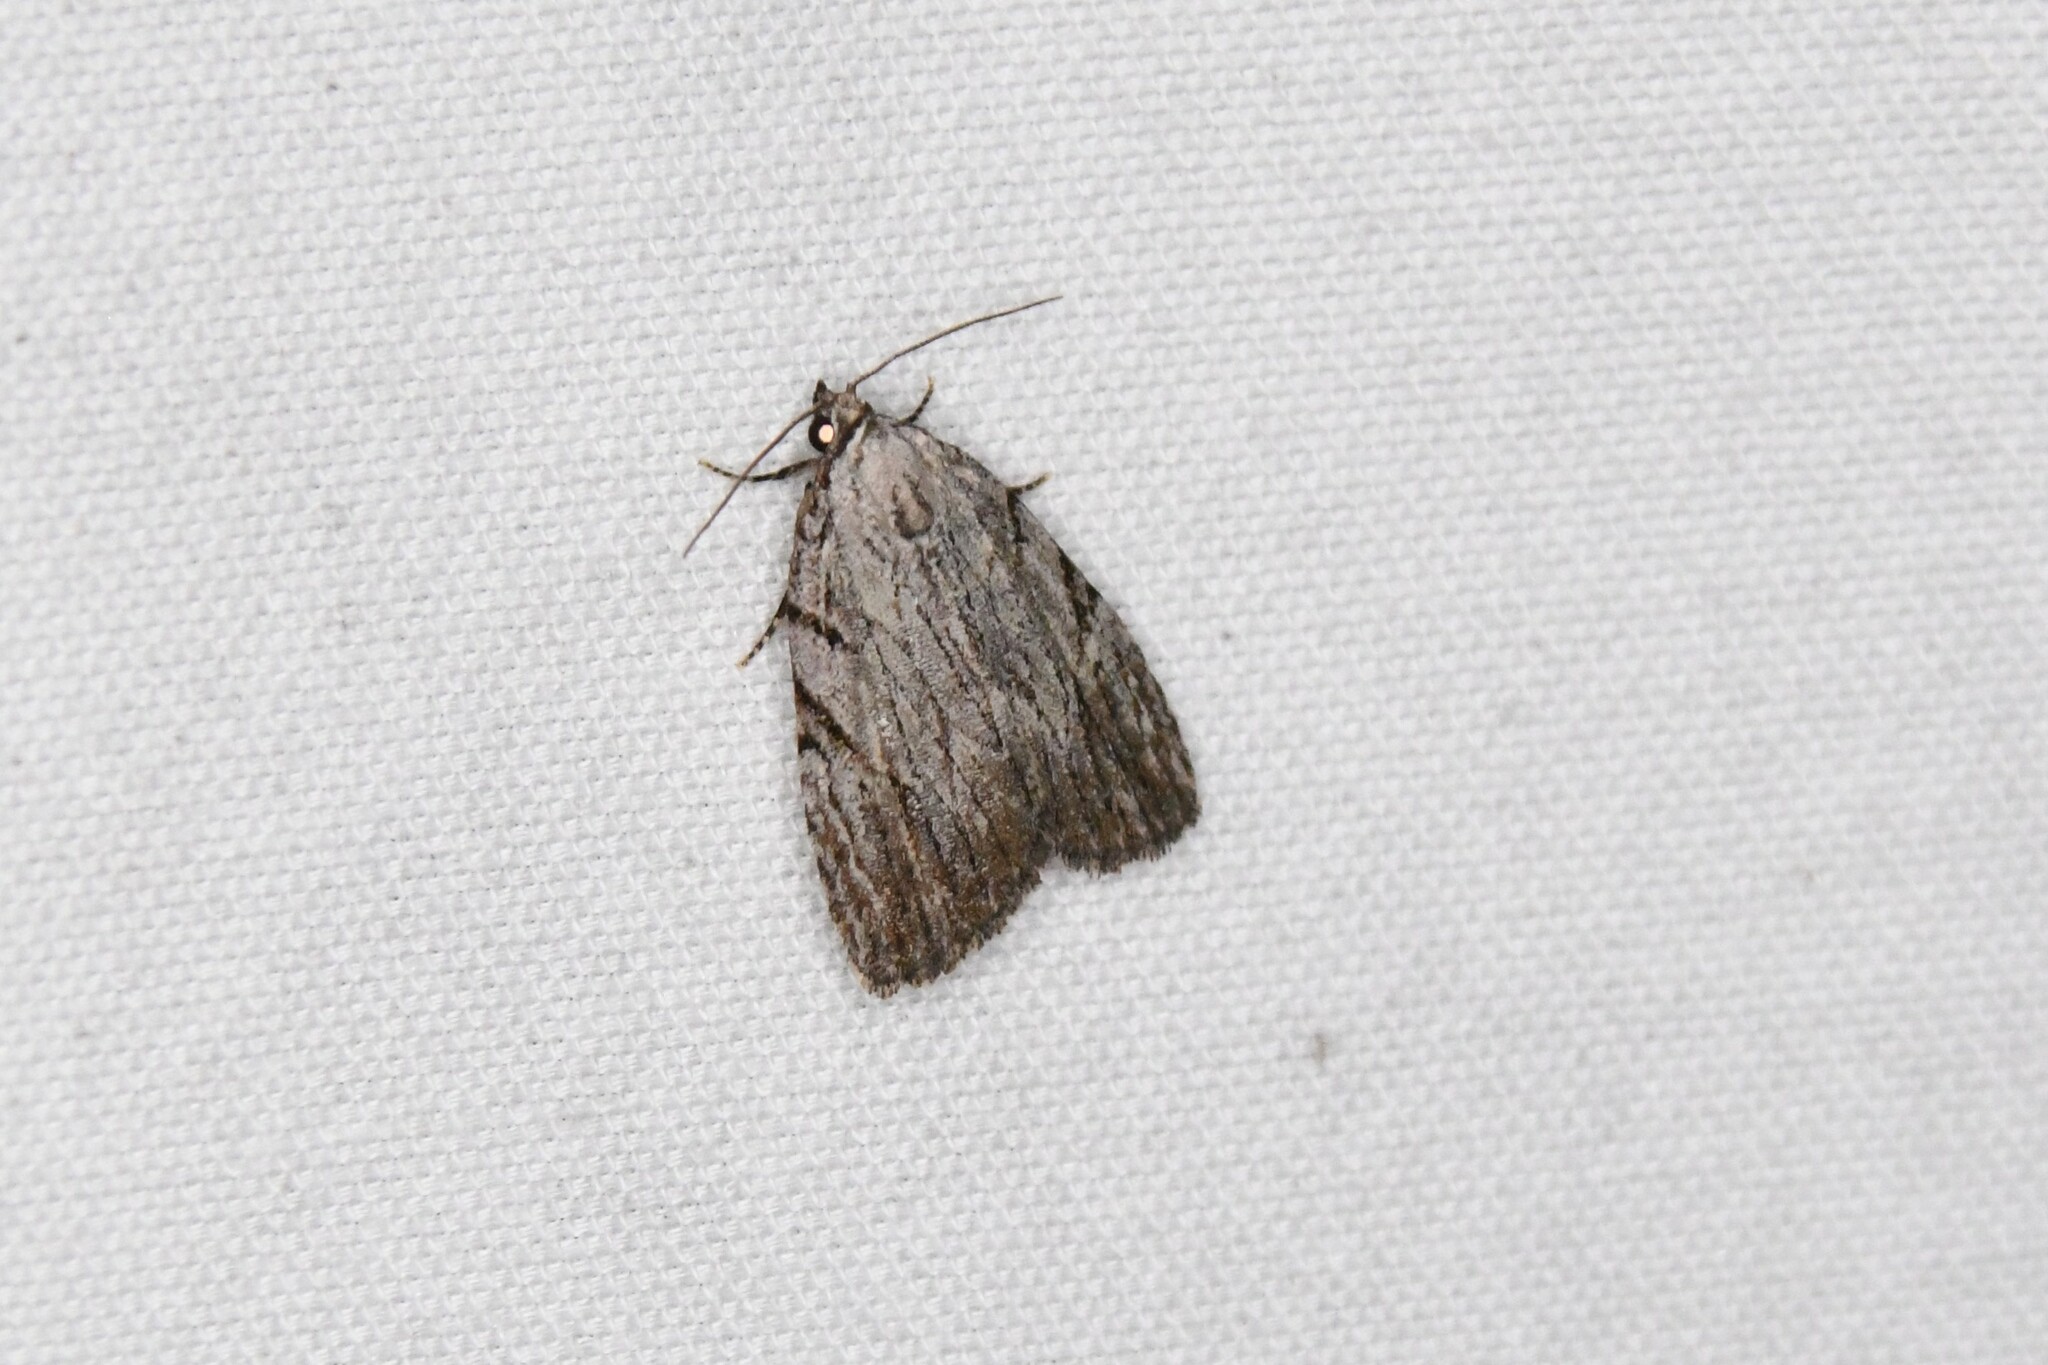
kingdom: Animalia
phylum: Arthropoda
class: Insecta
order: Lepidoptera
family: Noctuidae
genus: Balsa
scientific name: Balsa tristrigella
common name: Three-lined balsa moth
